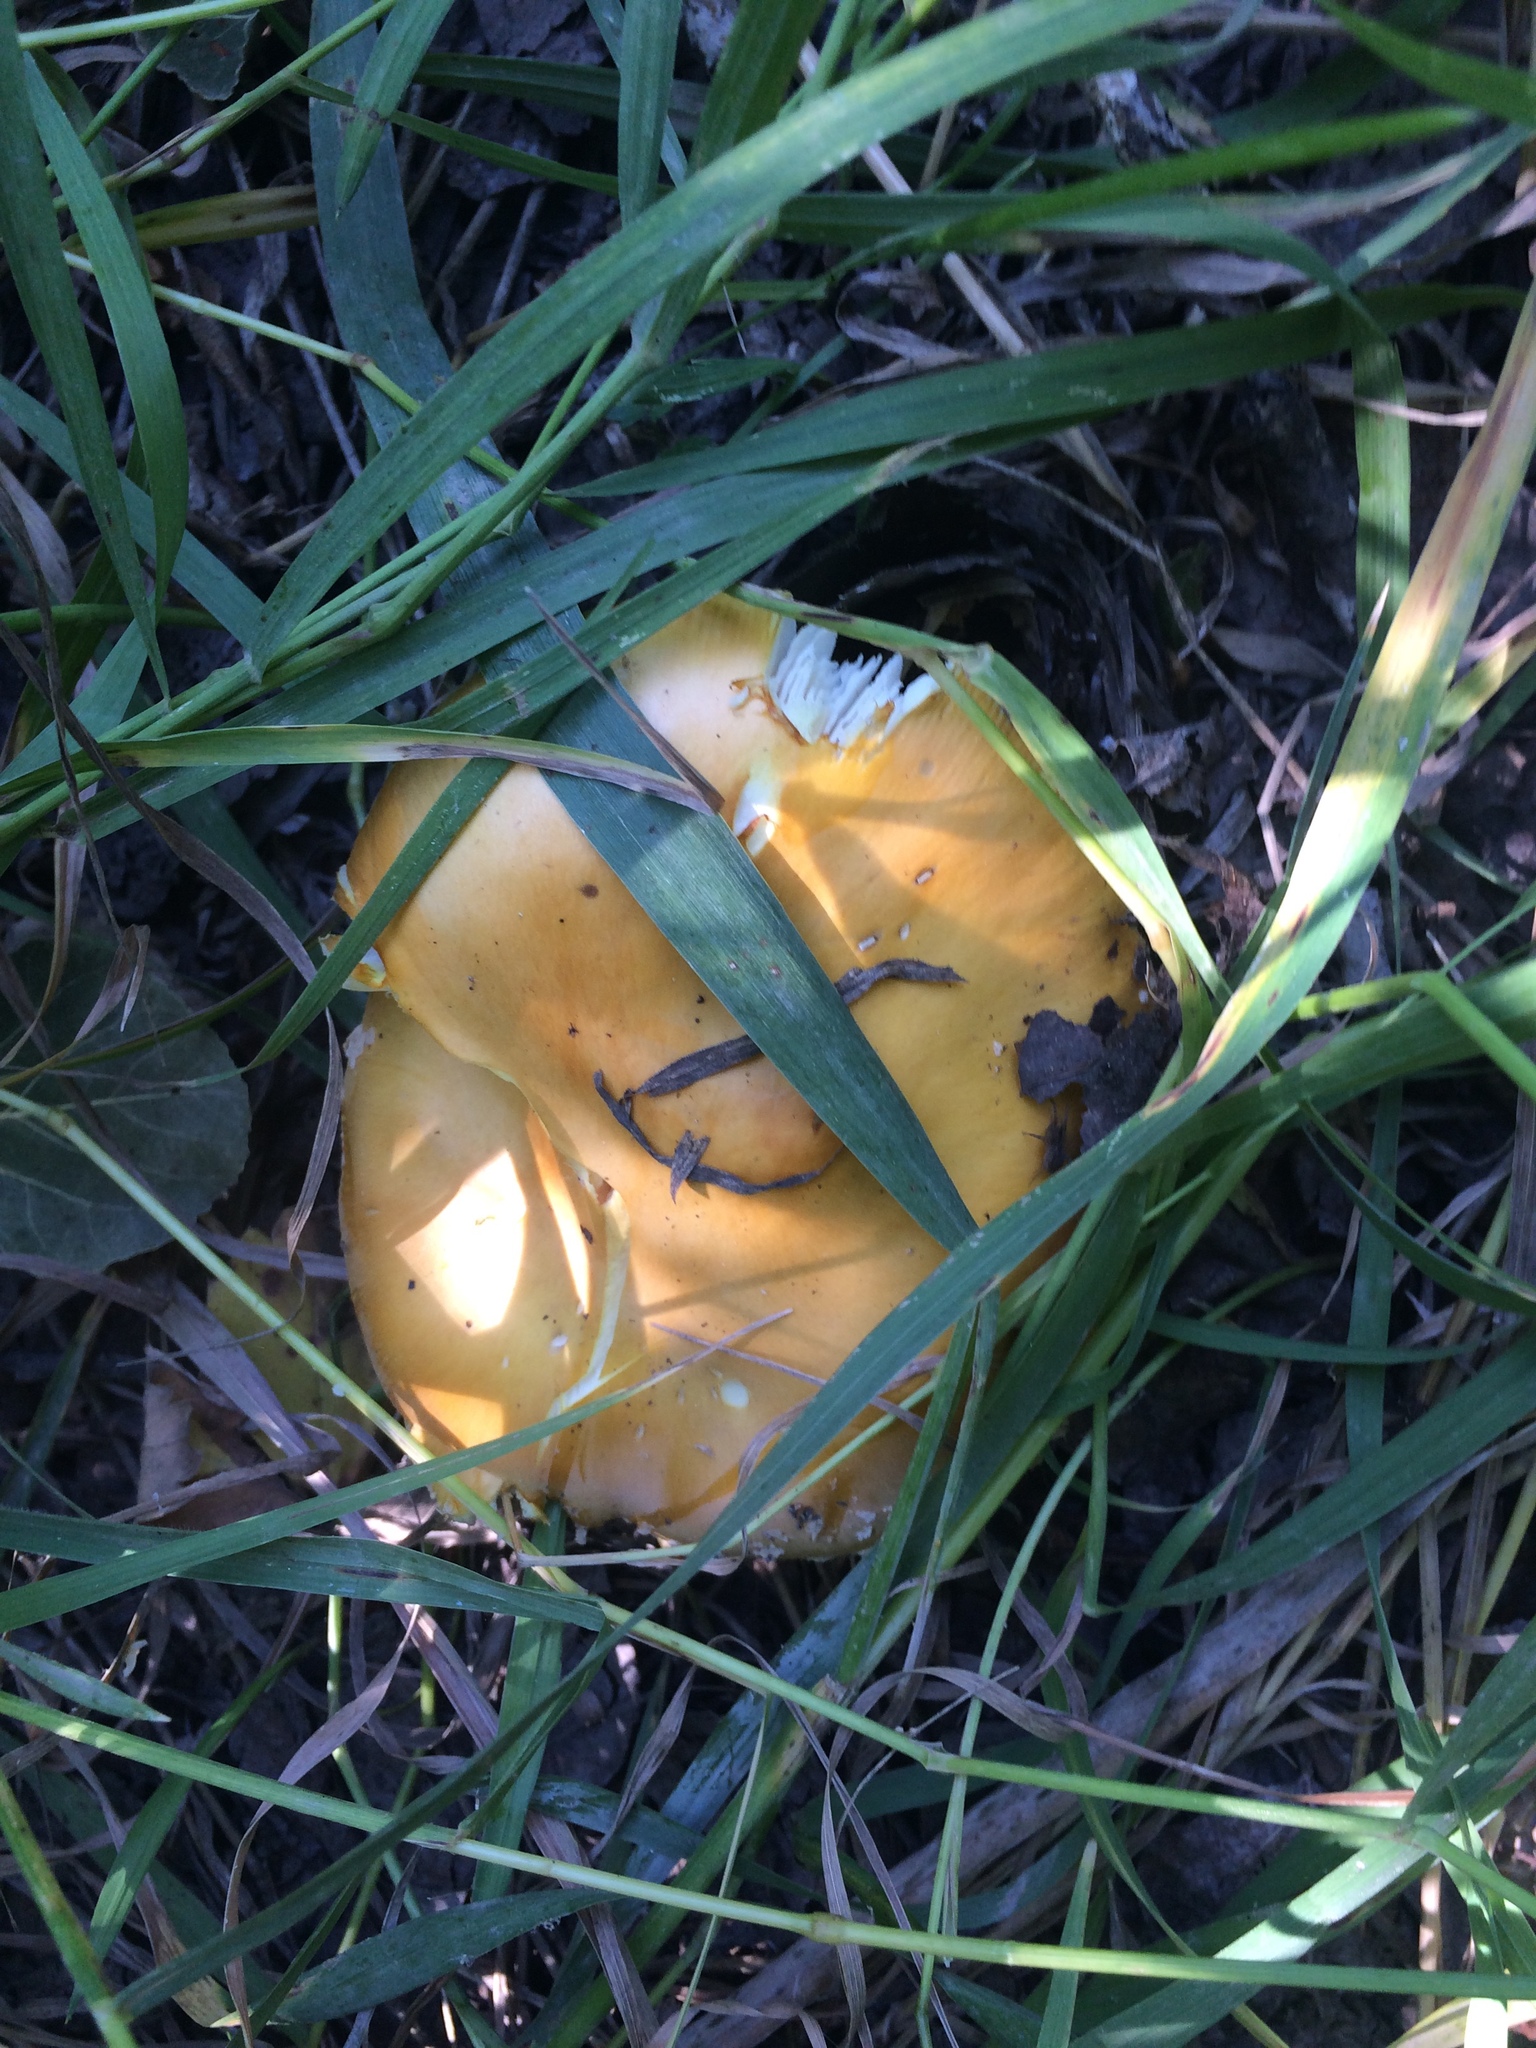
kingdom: Fungi
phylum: Basidiomycota
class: Agaricomycetes
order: Agaricales
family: Amanitaceae
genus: Amanita
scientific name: Amanita muscaria
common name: Fly agaric
